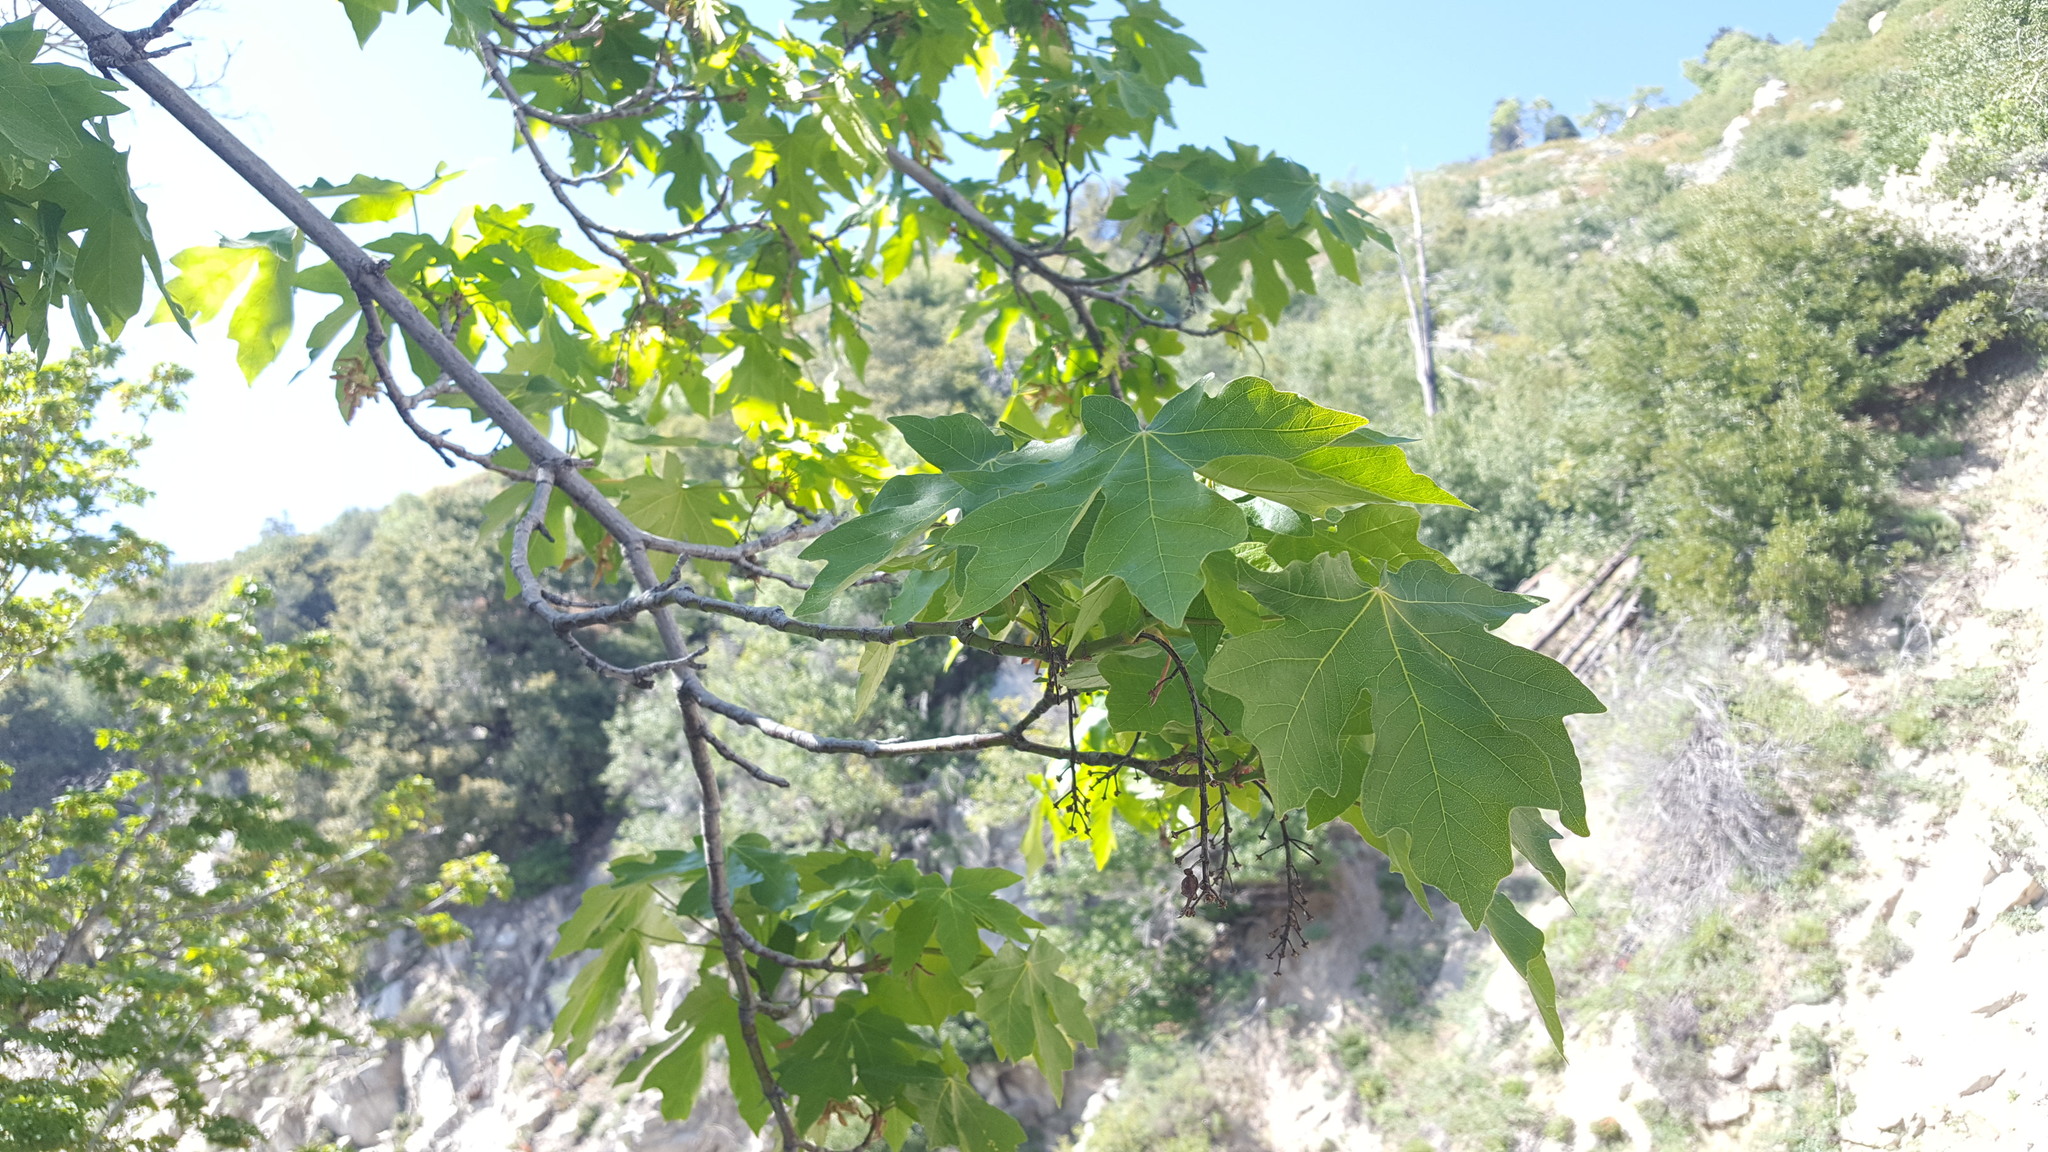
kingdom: Plantae
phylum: Tracheophyta
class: Magnoliopsida
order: Sapindales
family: Sapindaceae
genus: Acer
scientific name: Acer macrophyllum
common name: Oregon maple
